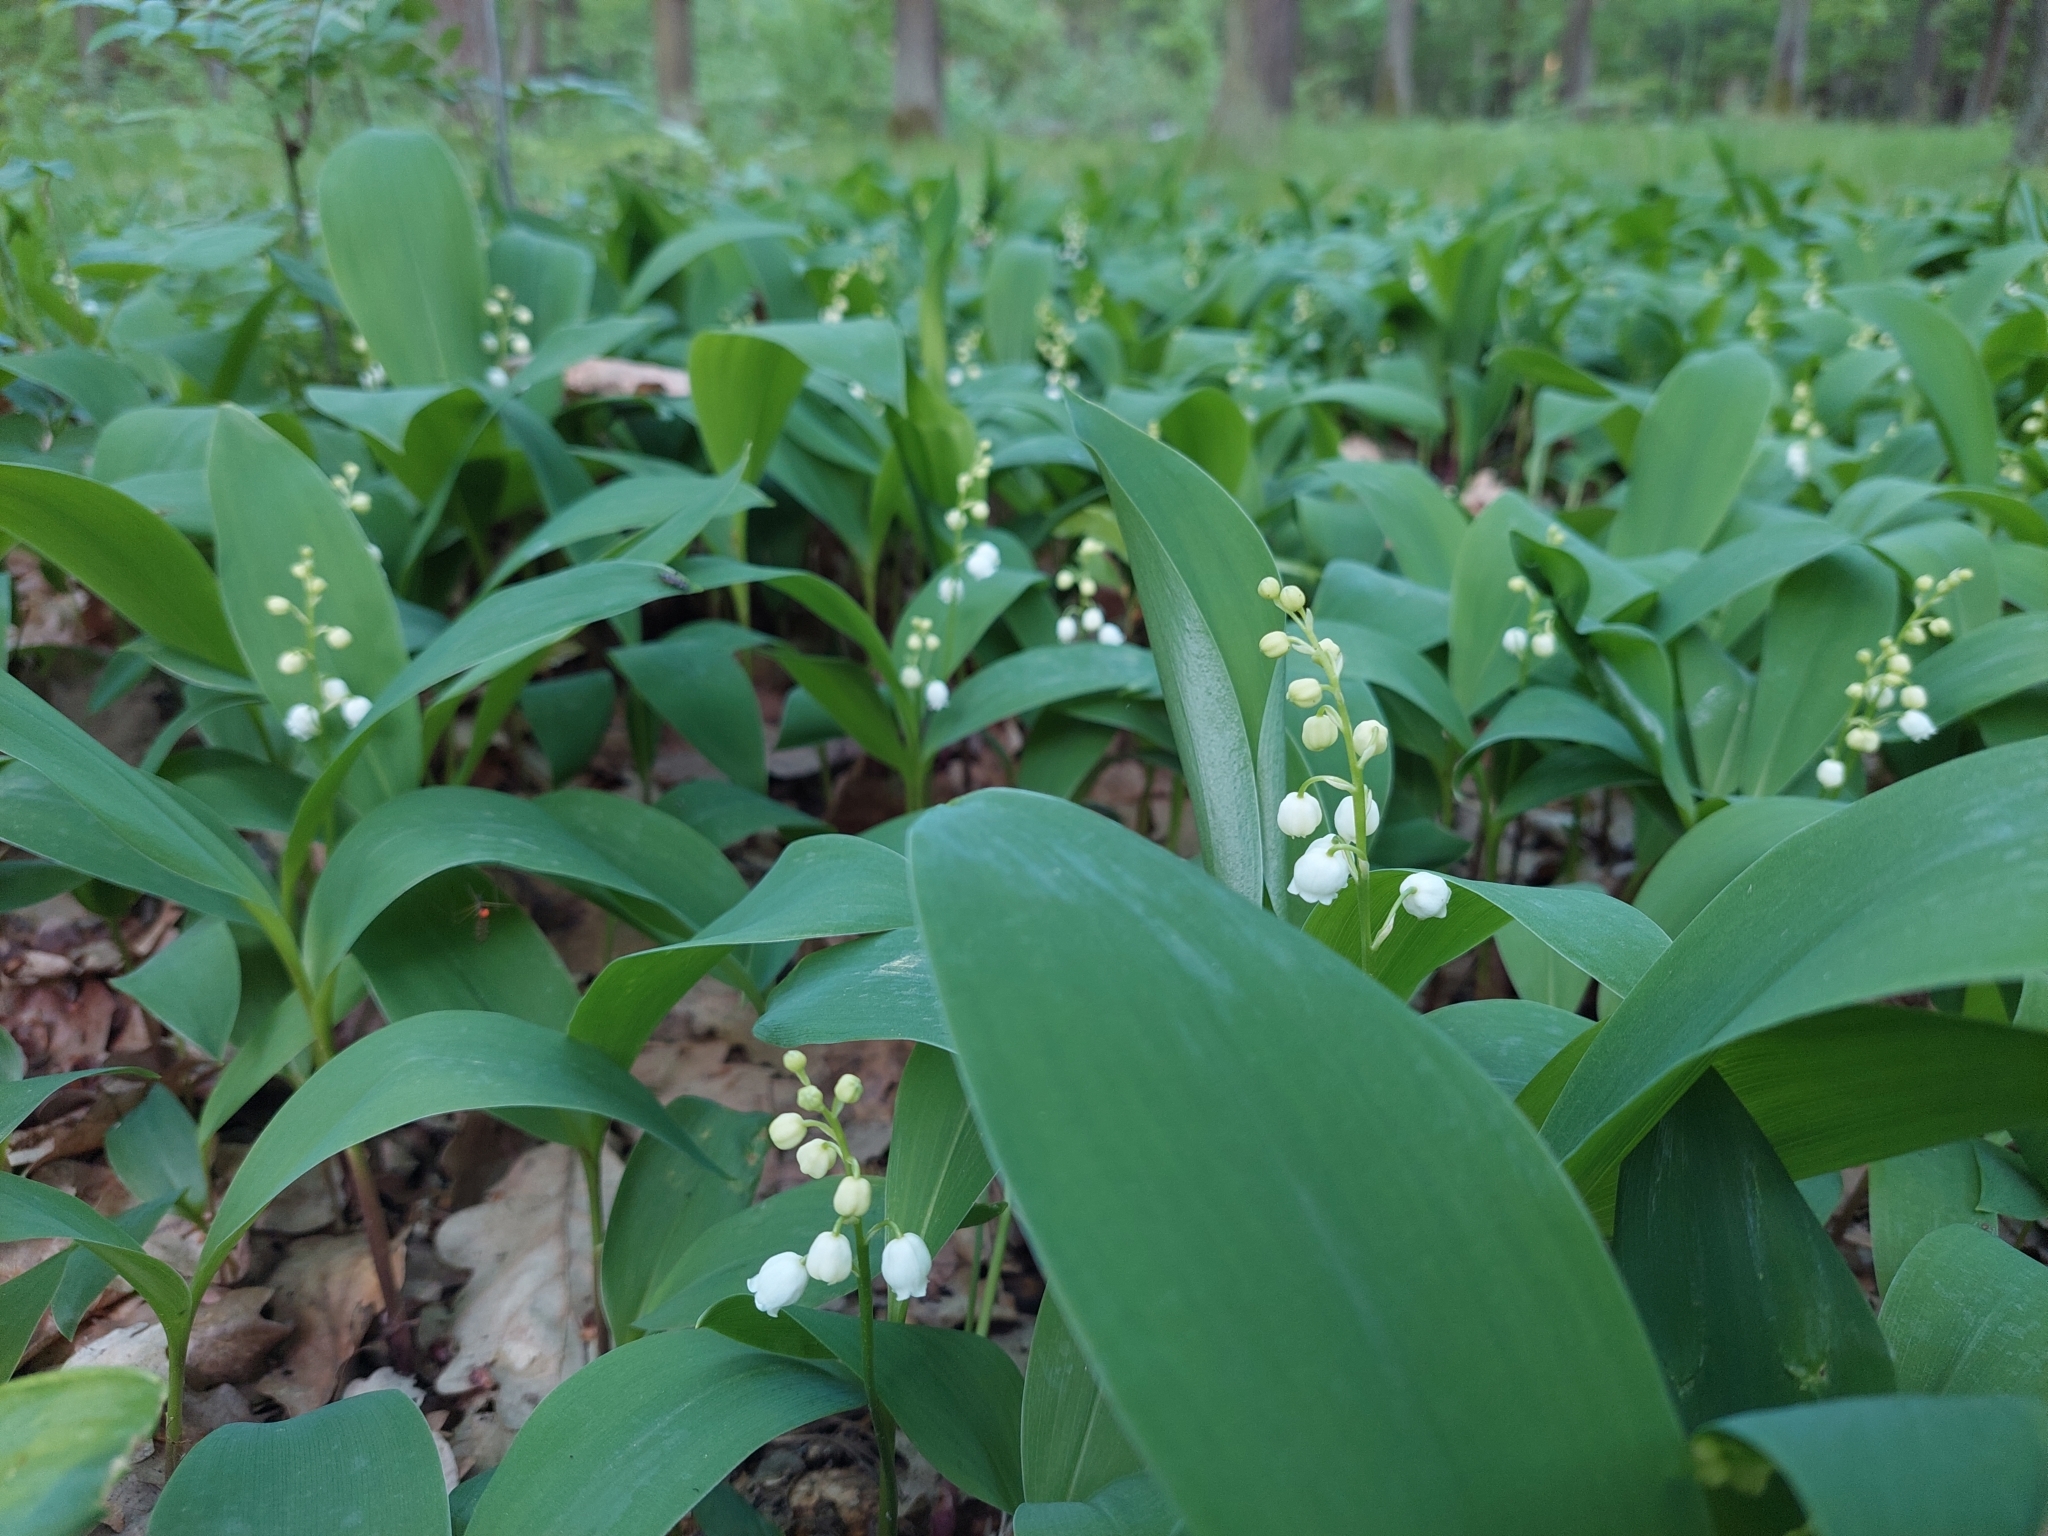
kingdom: Plantae
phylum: Tracheophyta
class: Liliopsida
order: Asparagales
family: Asparagaceae
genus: Convallaria
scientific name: Convallaria majalis
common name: Lily-of-the-valley
